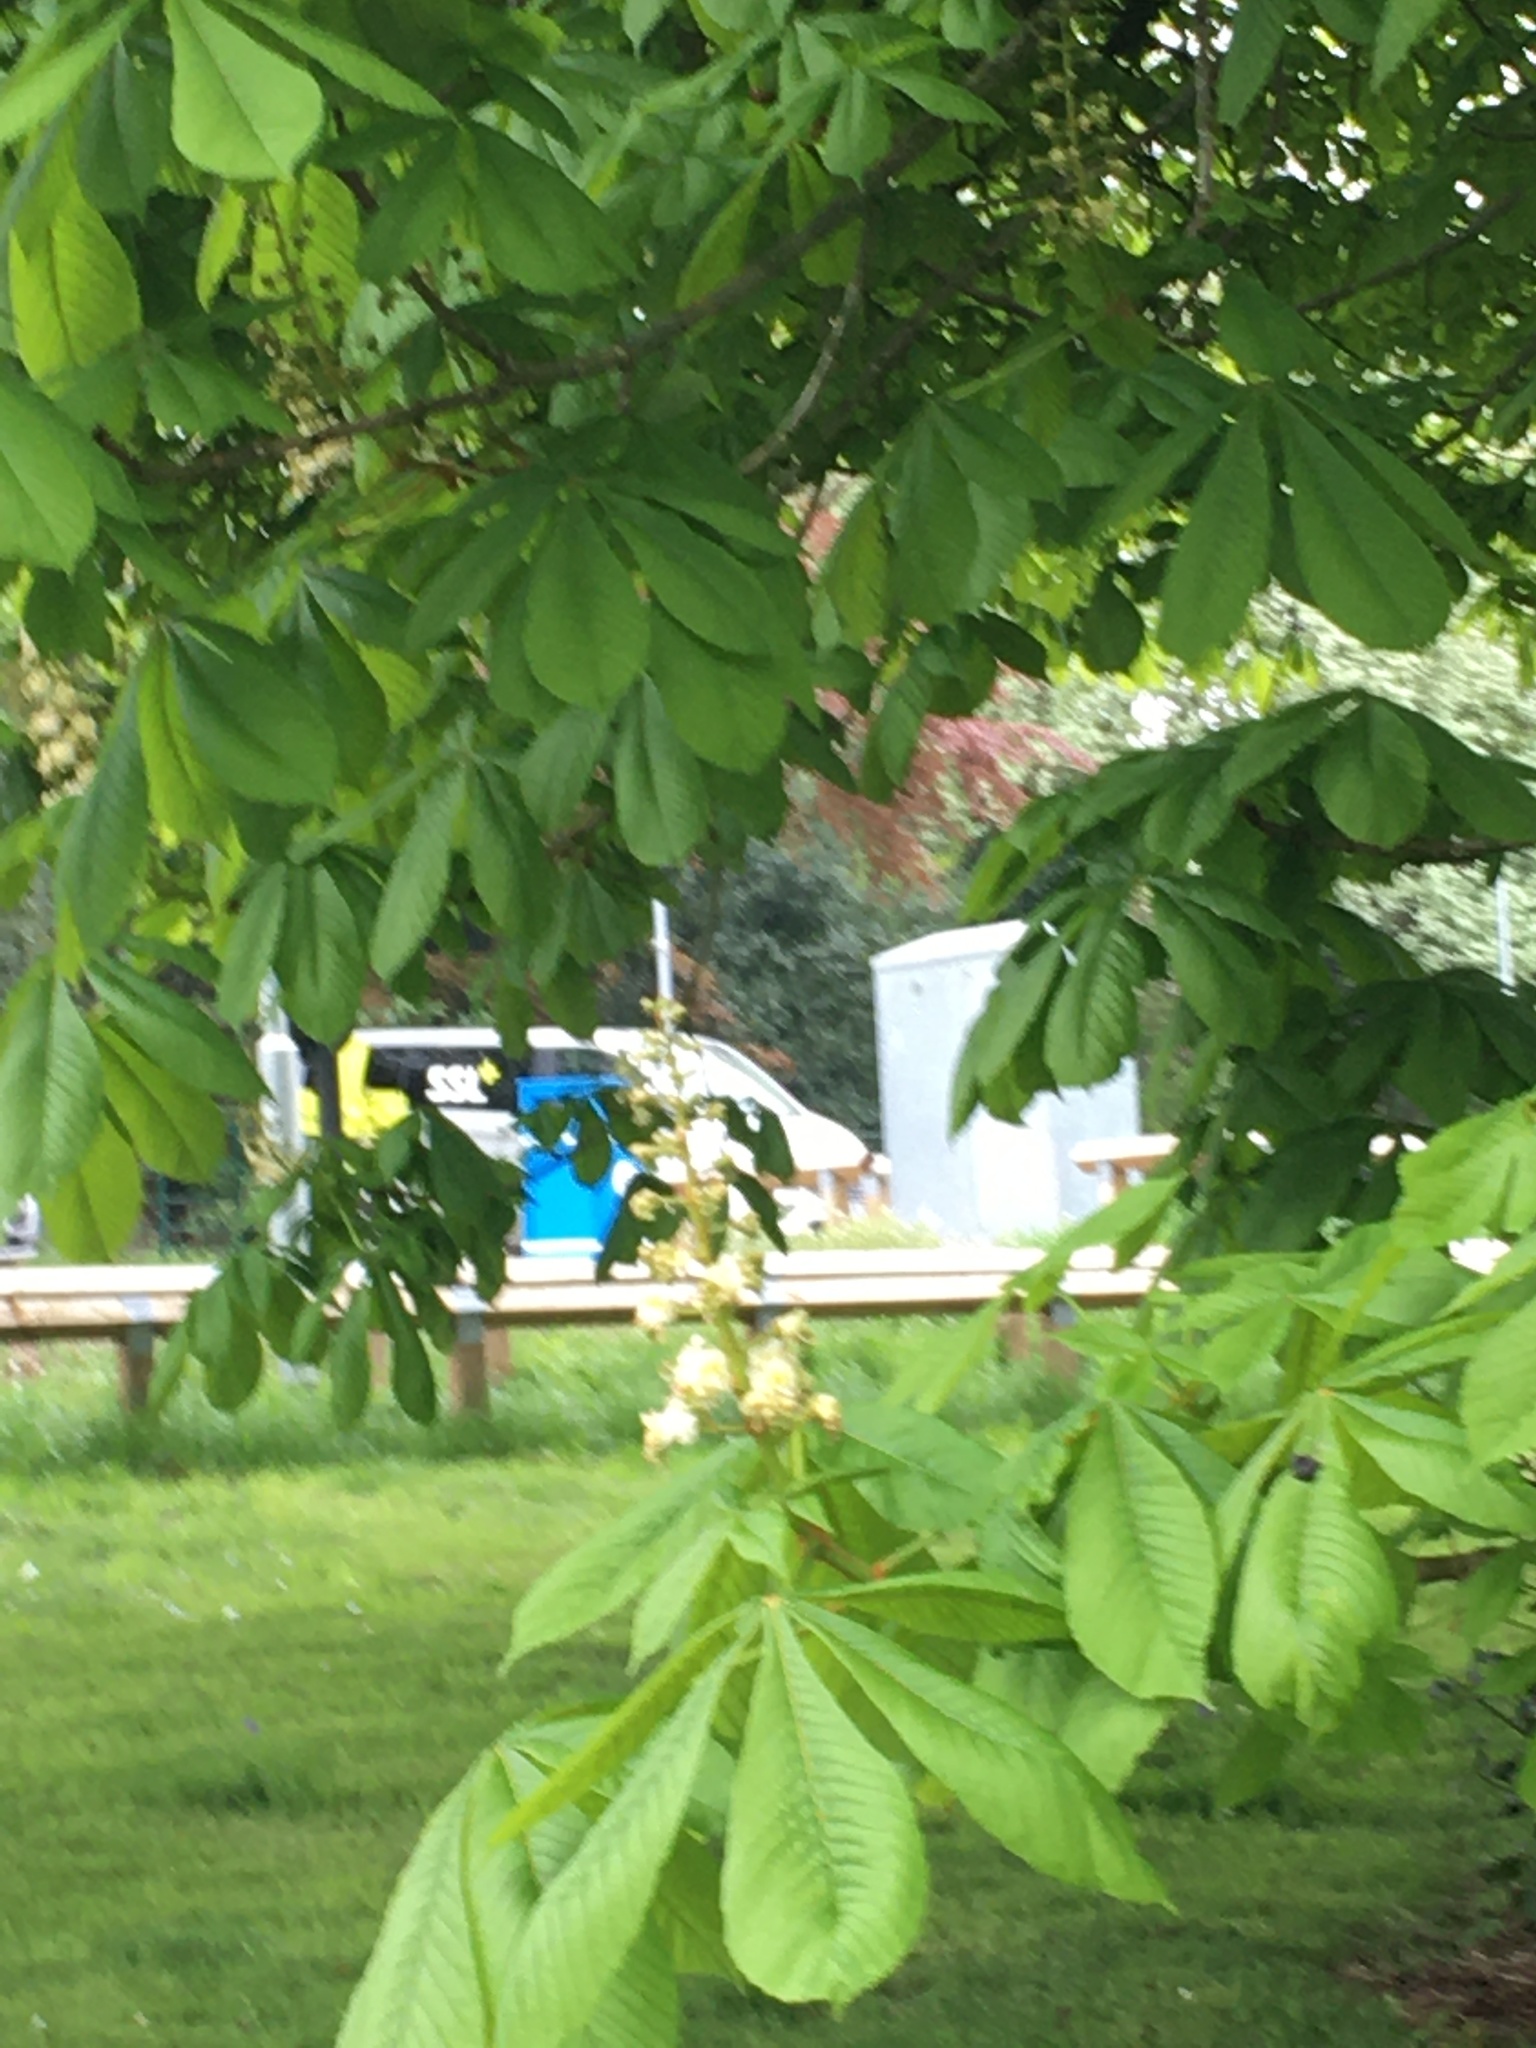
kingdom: Plantae
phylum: Tracheophyta
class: Magnoliopsida
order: Sapindales
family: Sapindaceae
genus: Aesculus
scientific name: Aesculus hippocastanum
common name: Horse-chestnut
